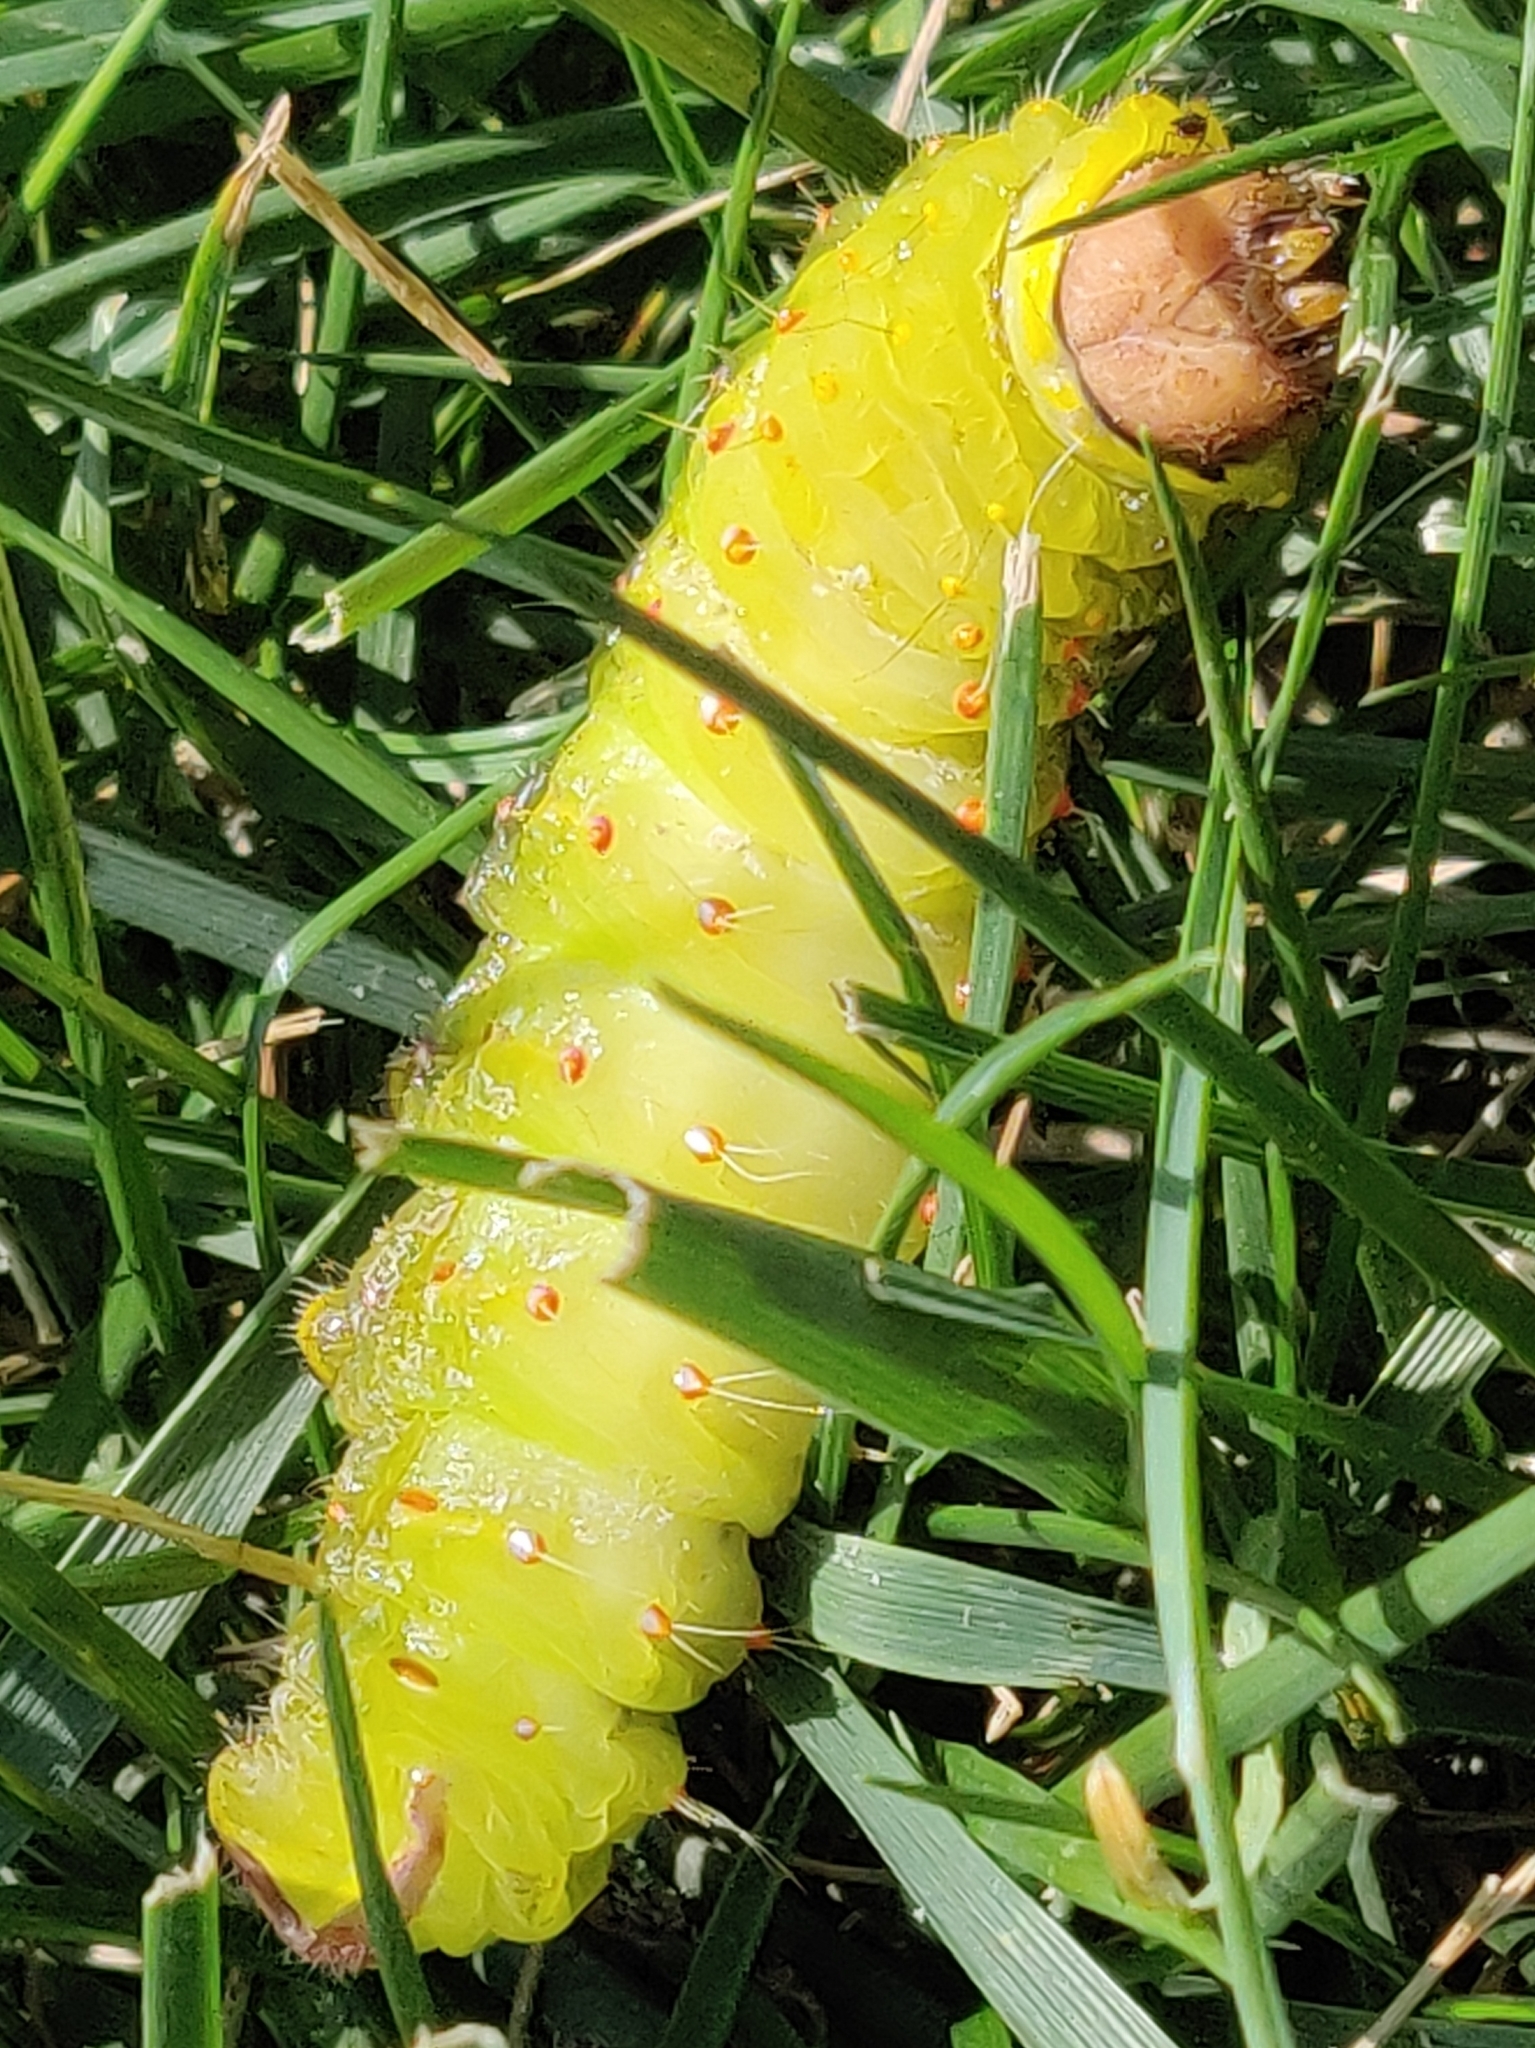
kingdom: Animalia
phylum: Arthropoda
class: Insecta
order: Lepidoptera
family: Saturniidae
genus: Antheraea
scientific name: Antheraea polyphemus
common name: Polyphemus moth
